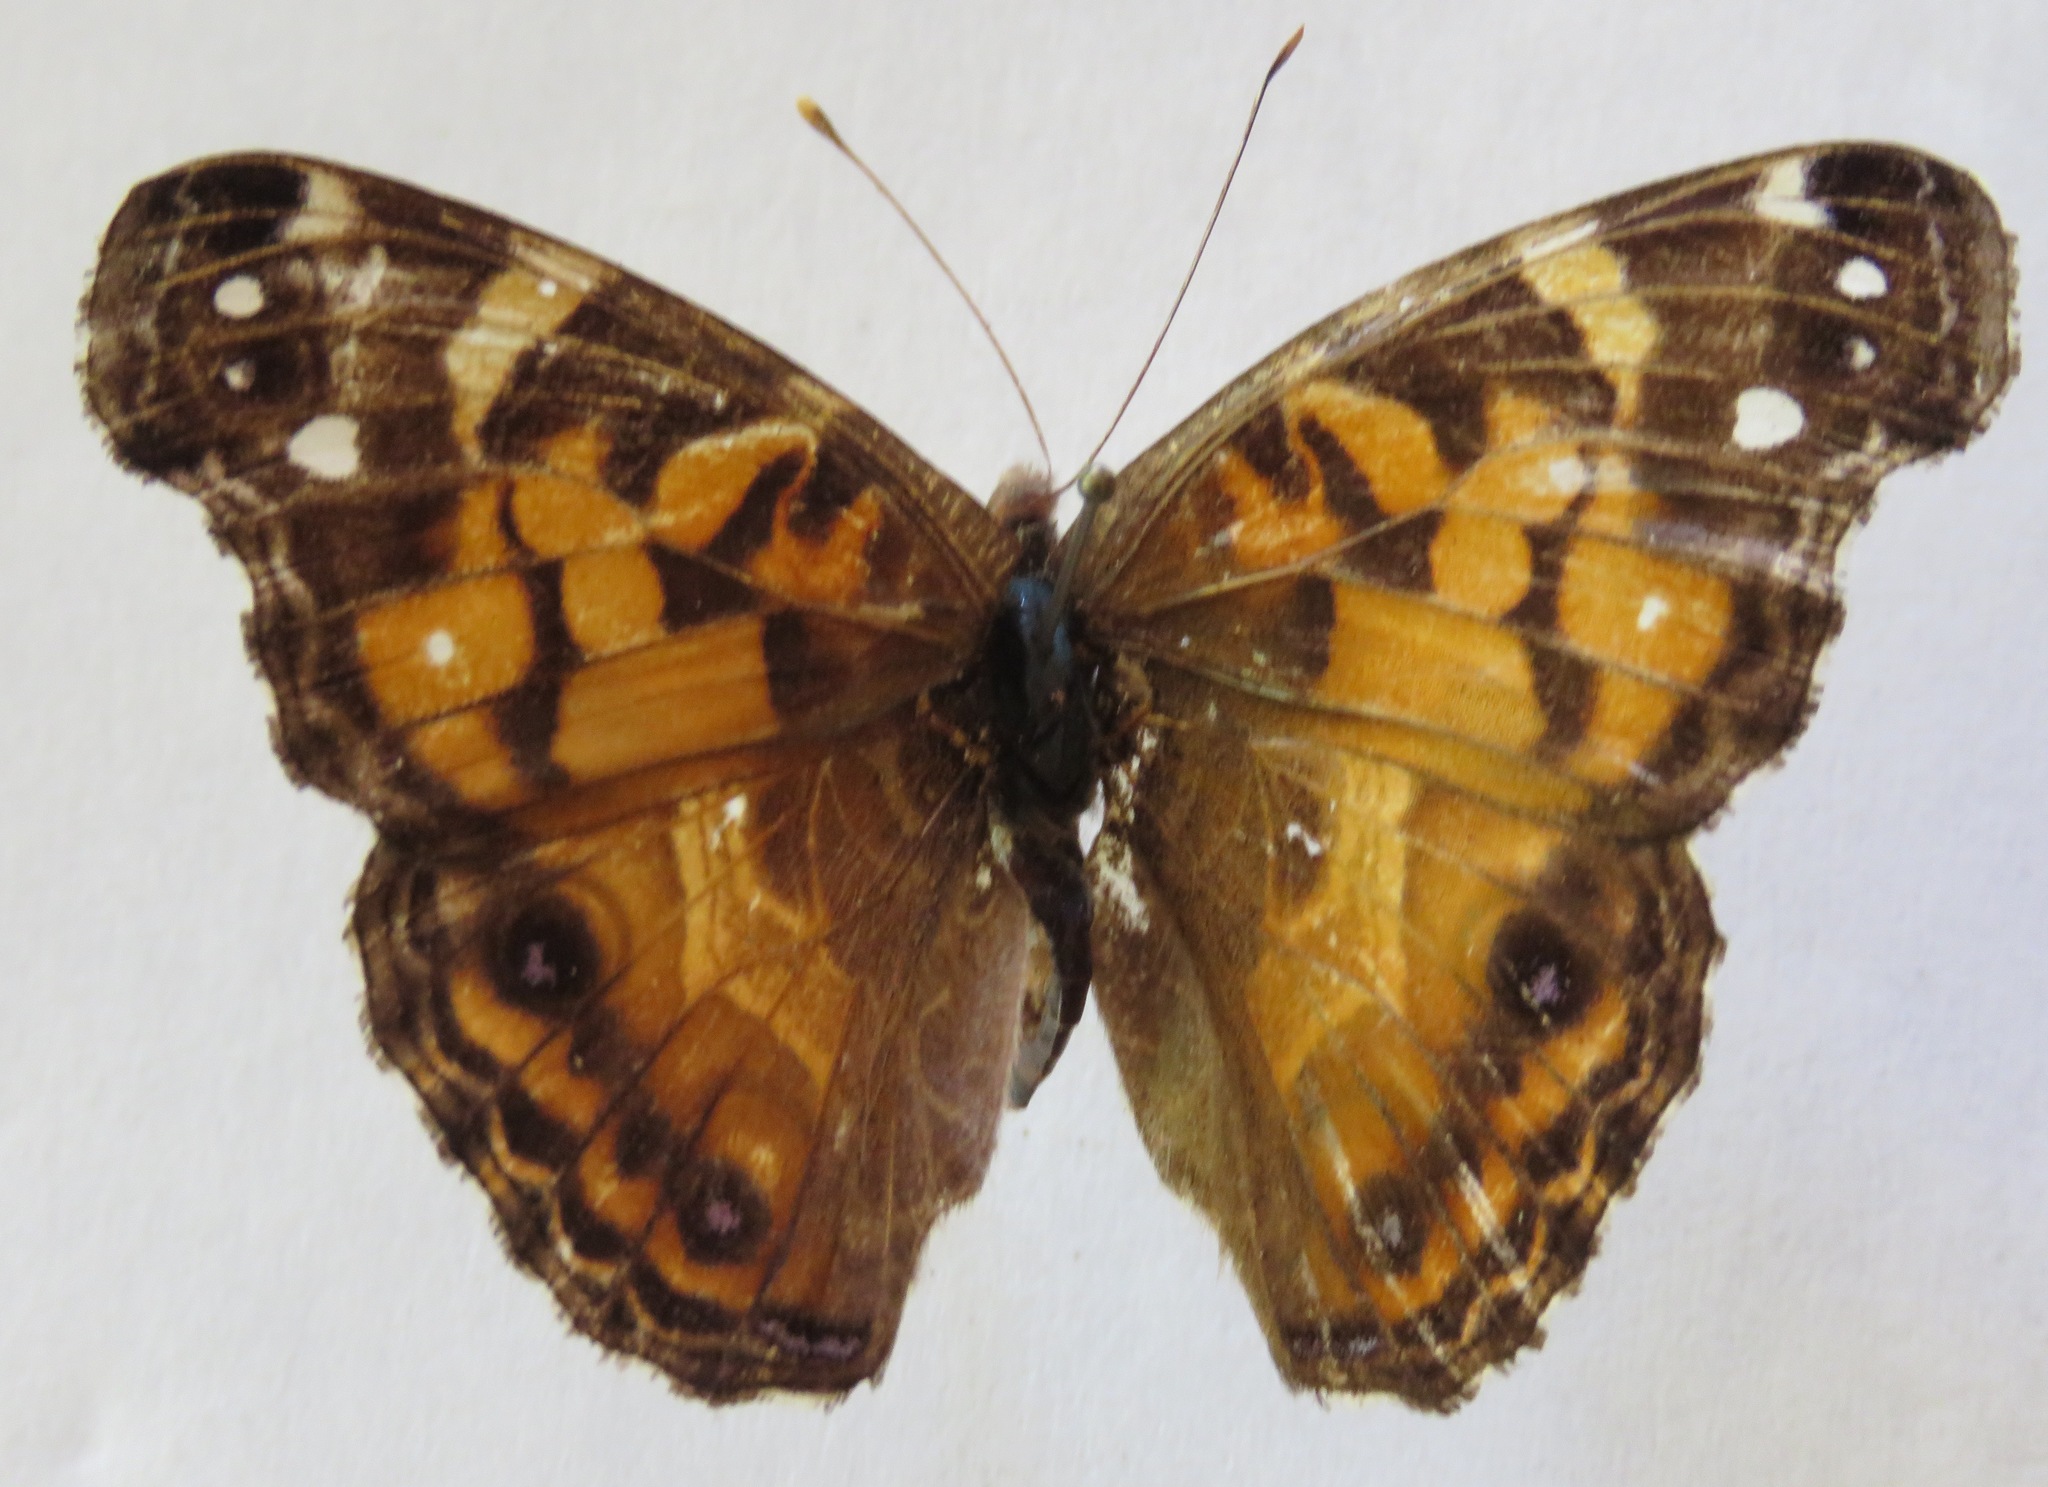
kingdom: Animalia
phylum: Arthropoda
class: Insecta
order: Lepidoptera
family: Nymphalidae
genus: Vanessa
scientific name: Vanessa virginiensis
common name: American lady
